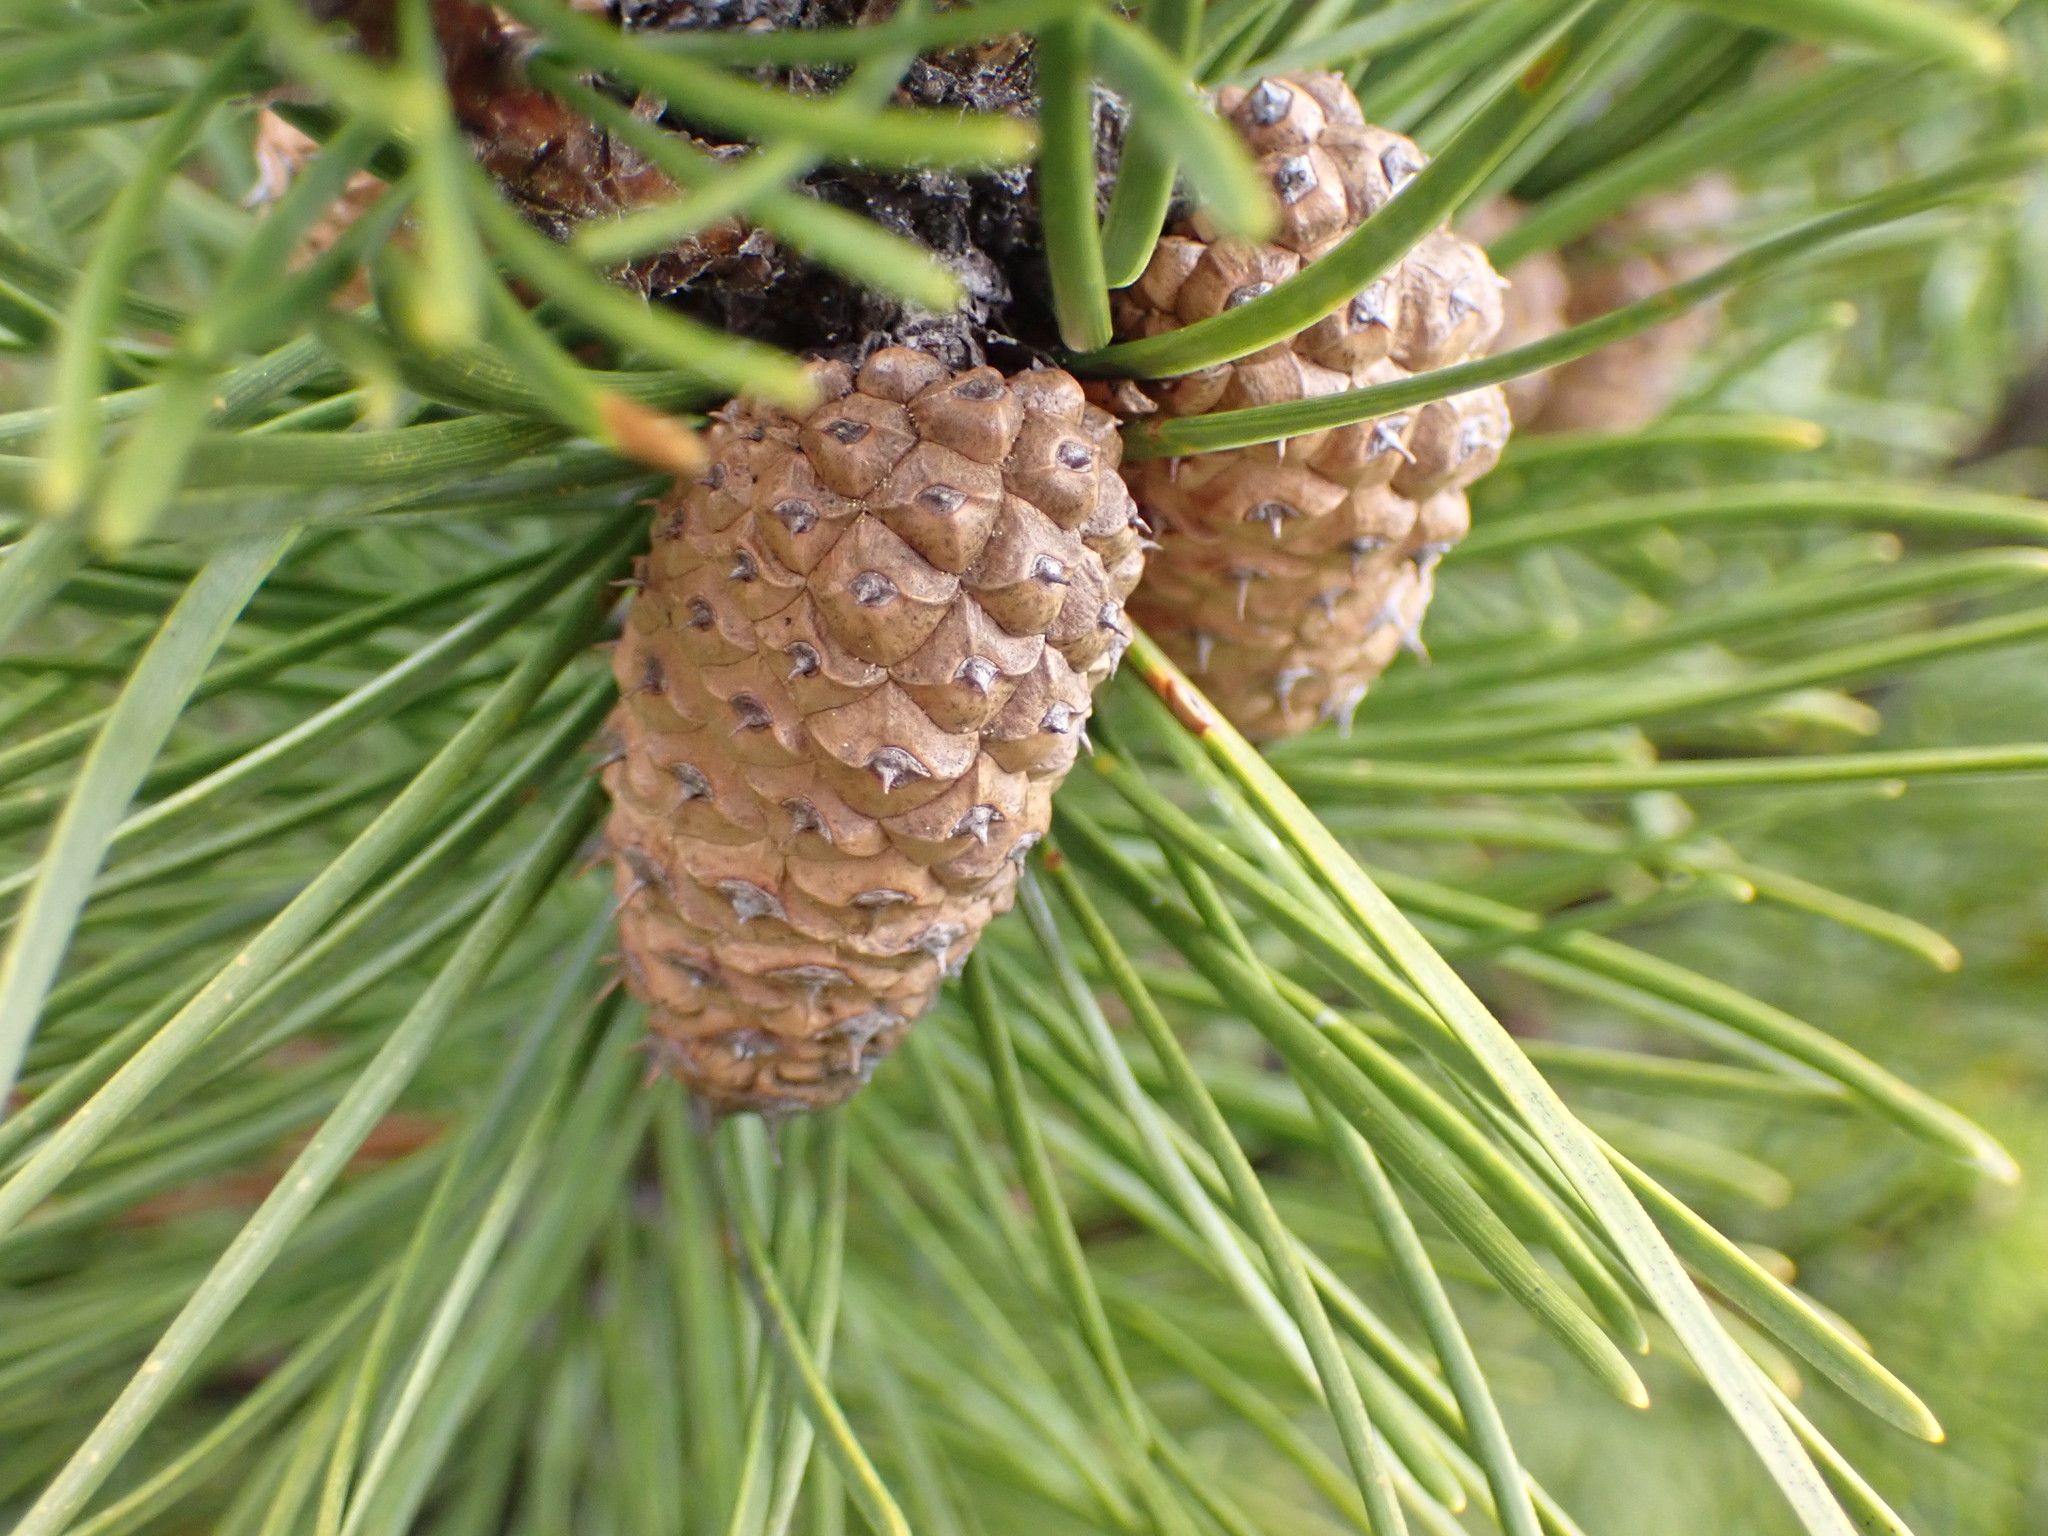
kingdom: Plantae
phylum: Tracheophyta
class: Pinopsida
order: Pinales
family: Pinaceae
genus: Pinus
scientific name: Pinus contorta
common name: Lodgepole pine
